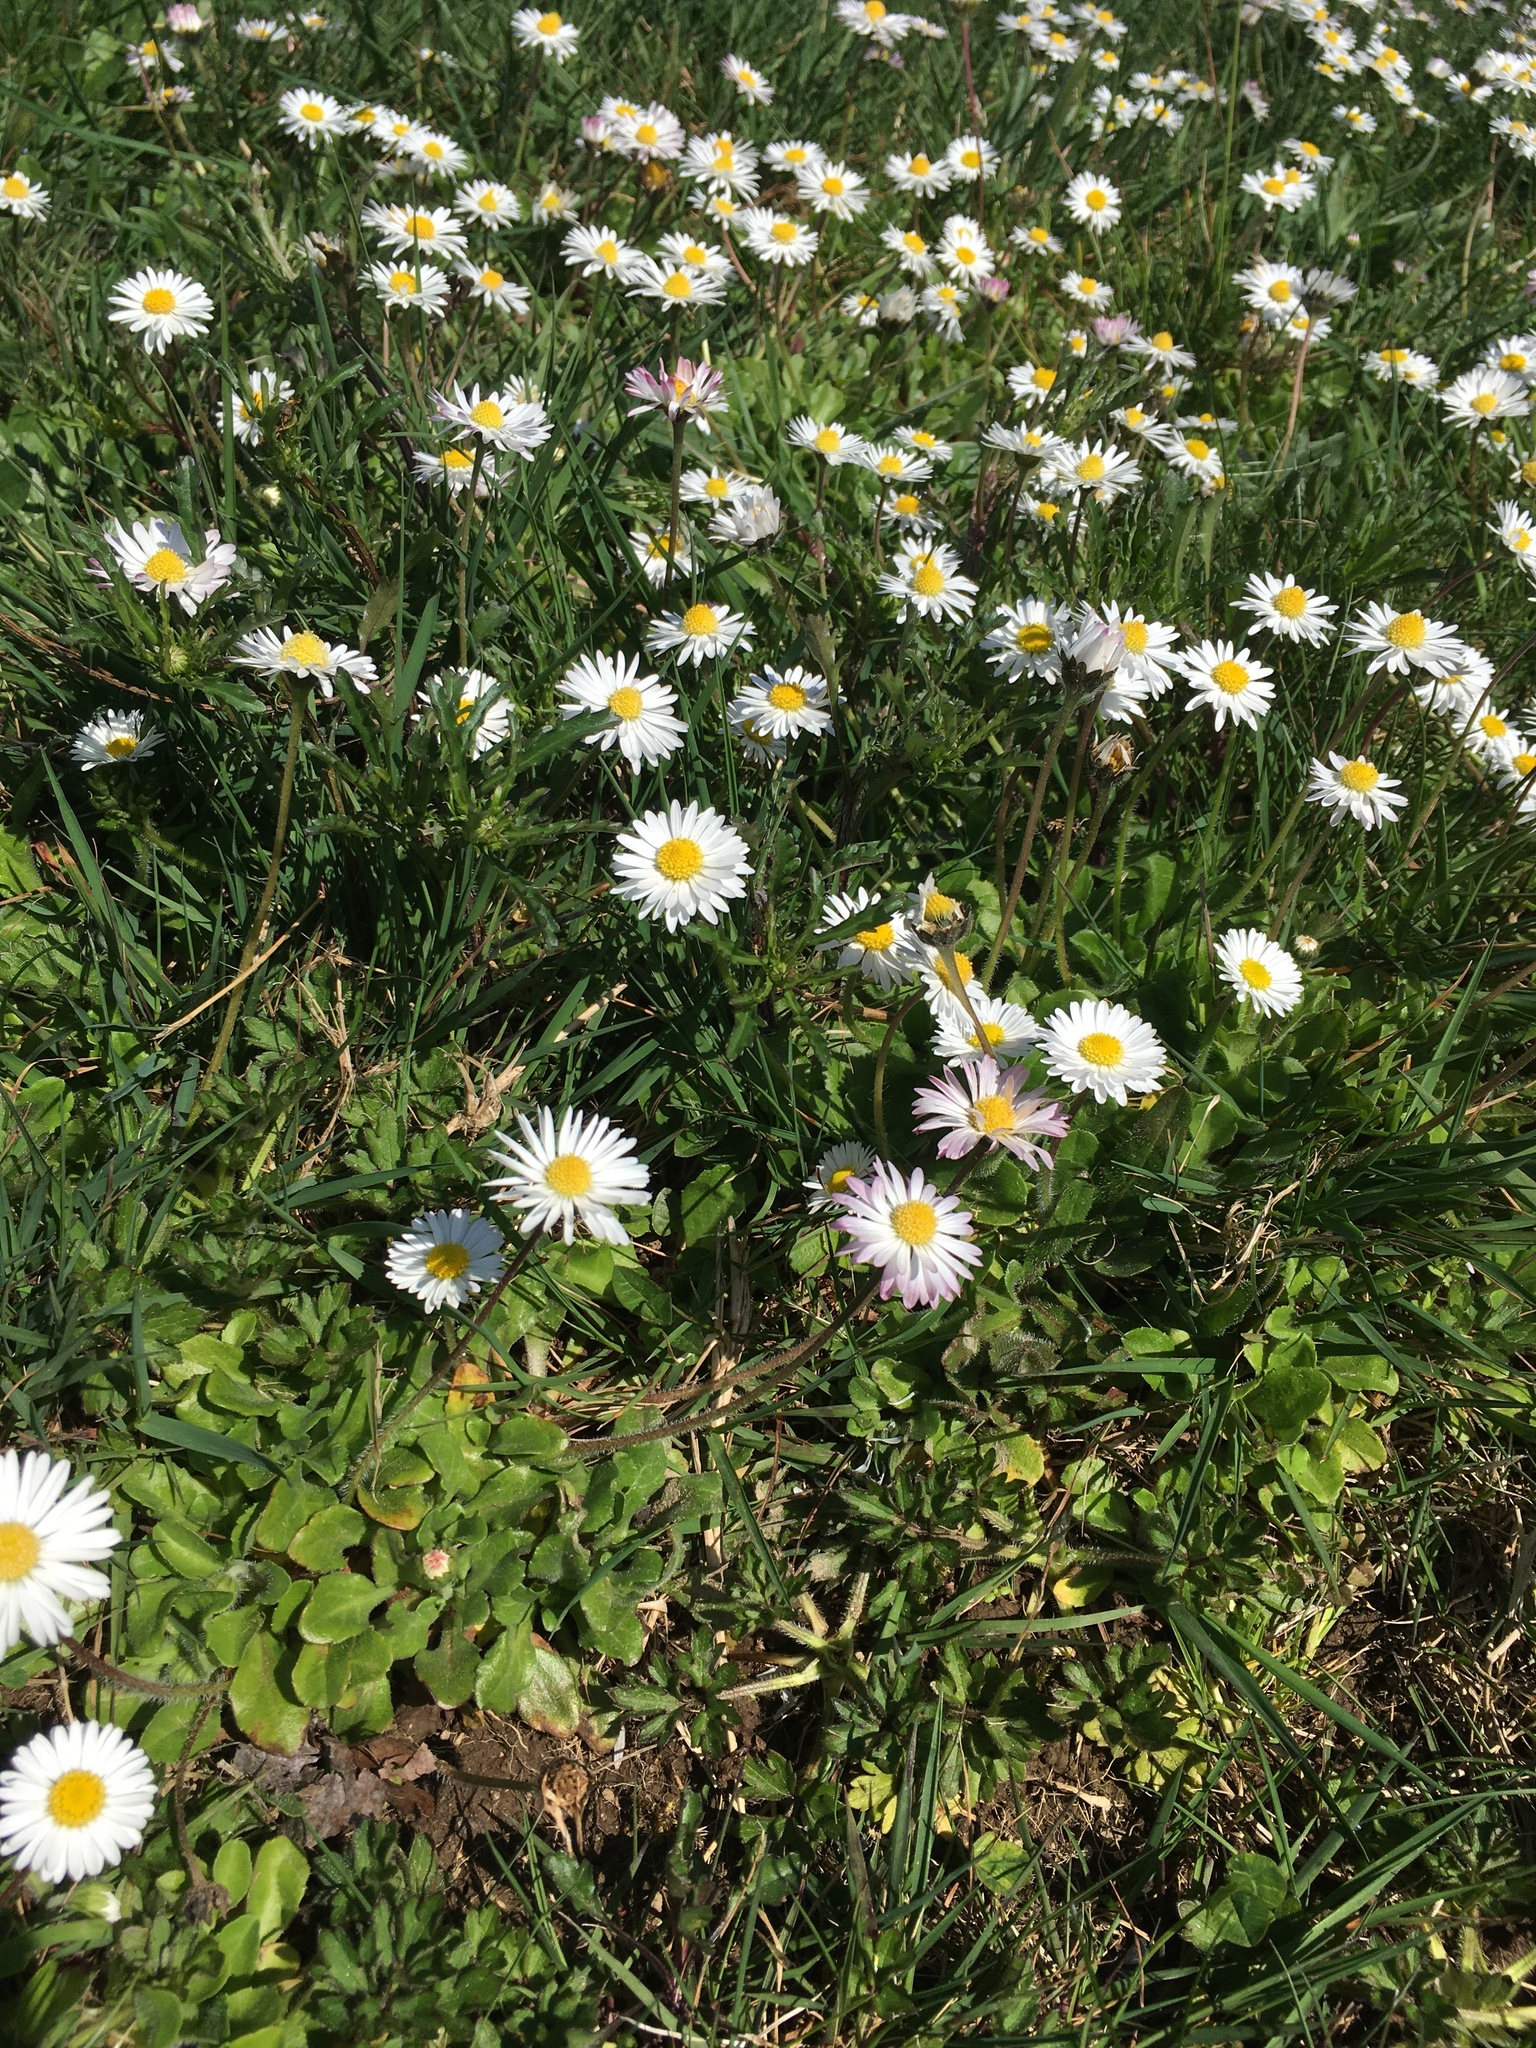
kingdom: Plantae
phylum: Tracheophyta
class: Magnoliopsida
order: Asterales
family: Asteraceae
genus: Bellis
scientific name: Bellis perennis
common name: Lawndaisy
